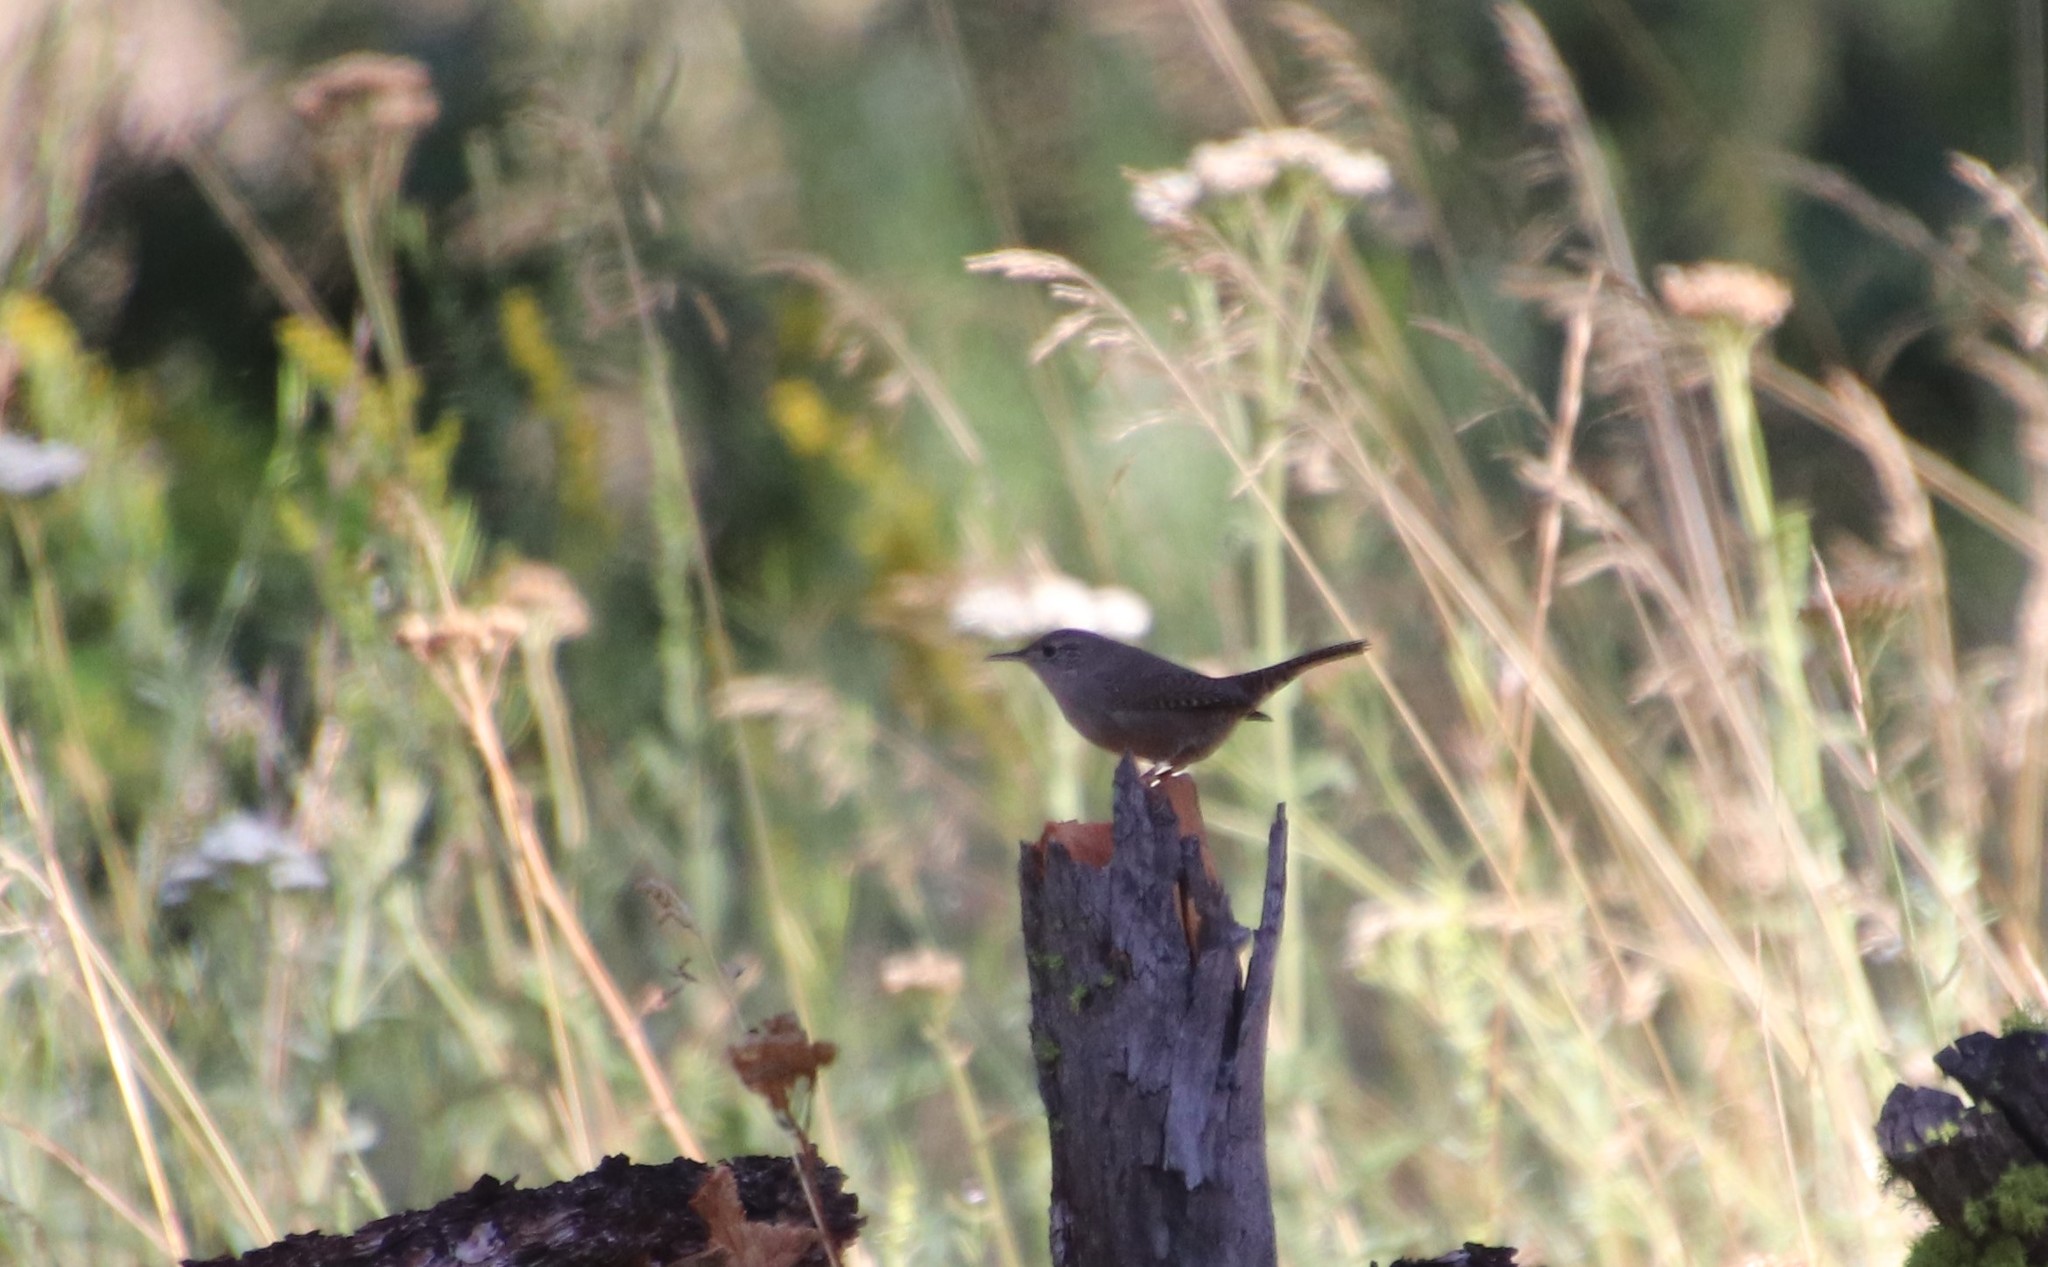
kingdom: Animalia
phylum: Chordata
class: Aves
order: Passeriformes
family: Troglodytidae
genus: Troglodytes
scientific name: Troglodytes aedon
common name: House wren
